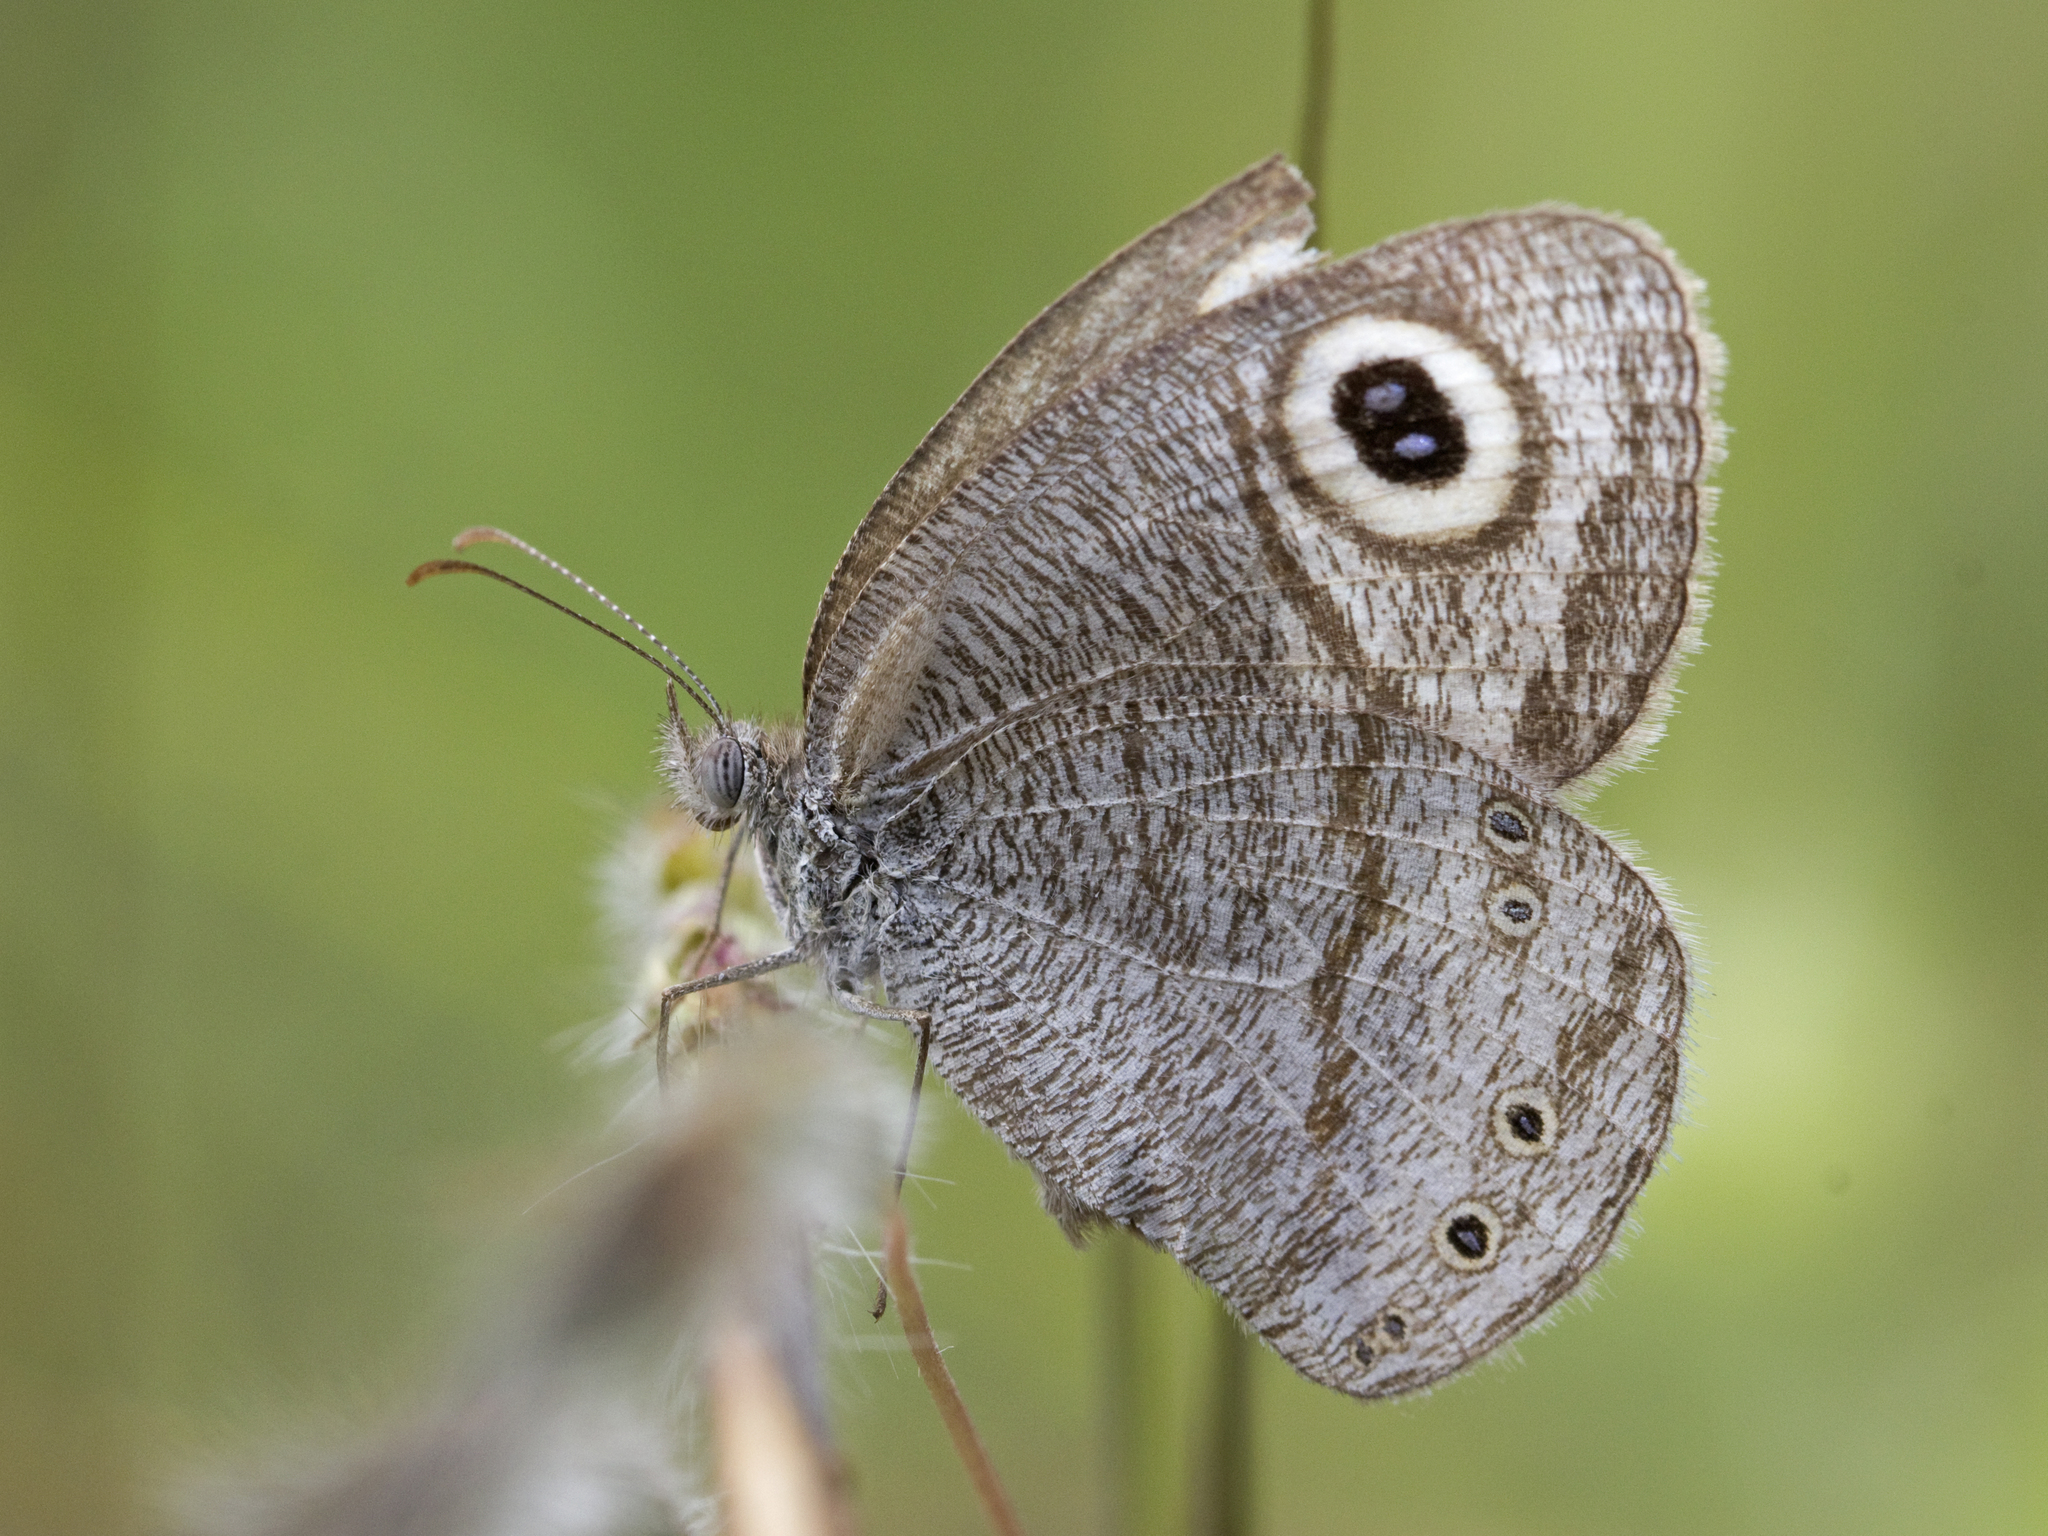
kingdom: Animalia
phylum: Arthropoda
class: Insecta
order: Lepidoptera
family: Nymphalidae
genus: Ypthima
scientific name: Ypthima avanta
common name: Jewel five-ring
